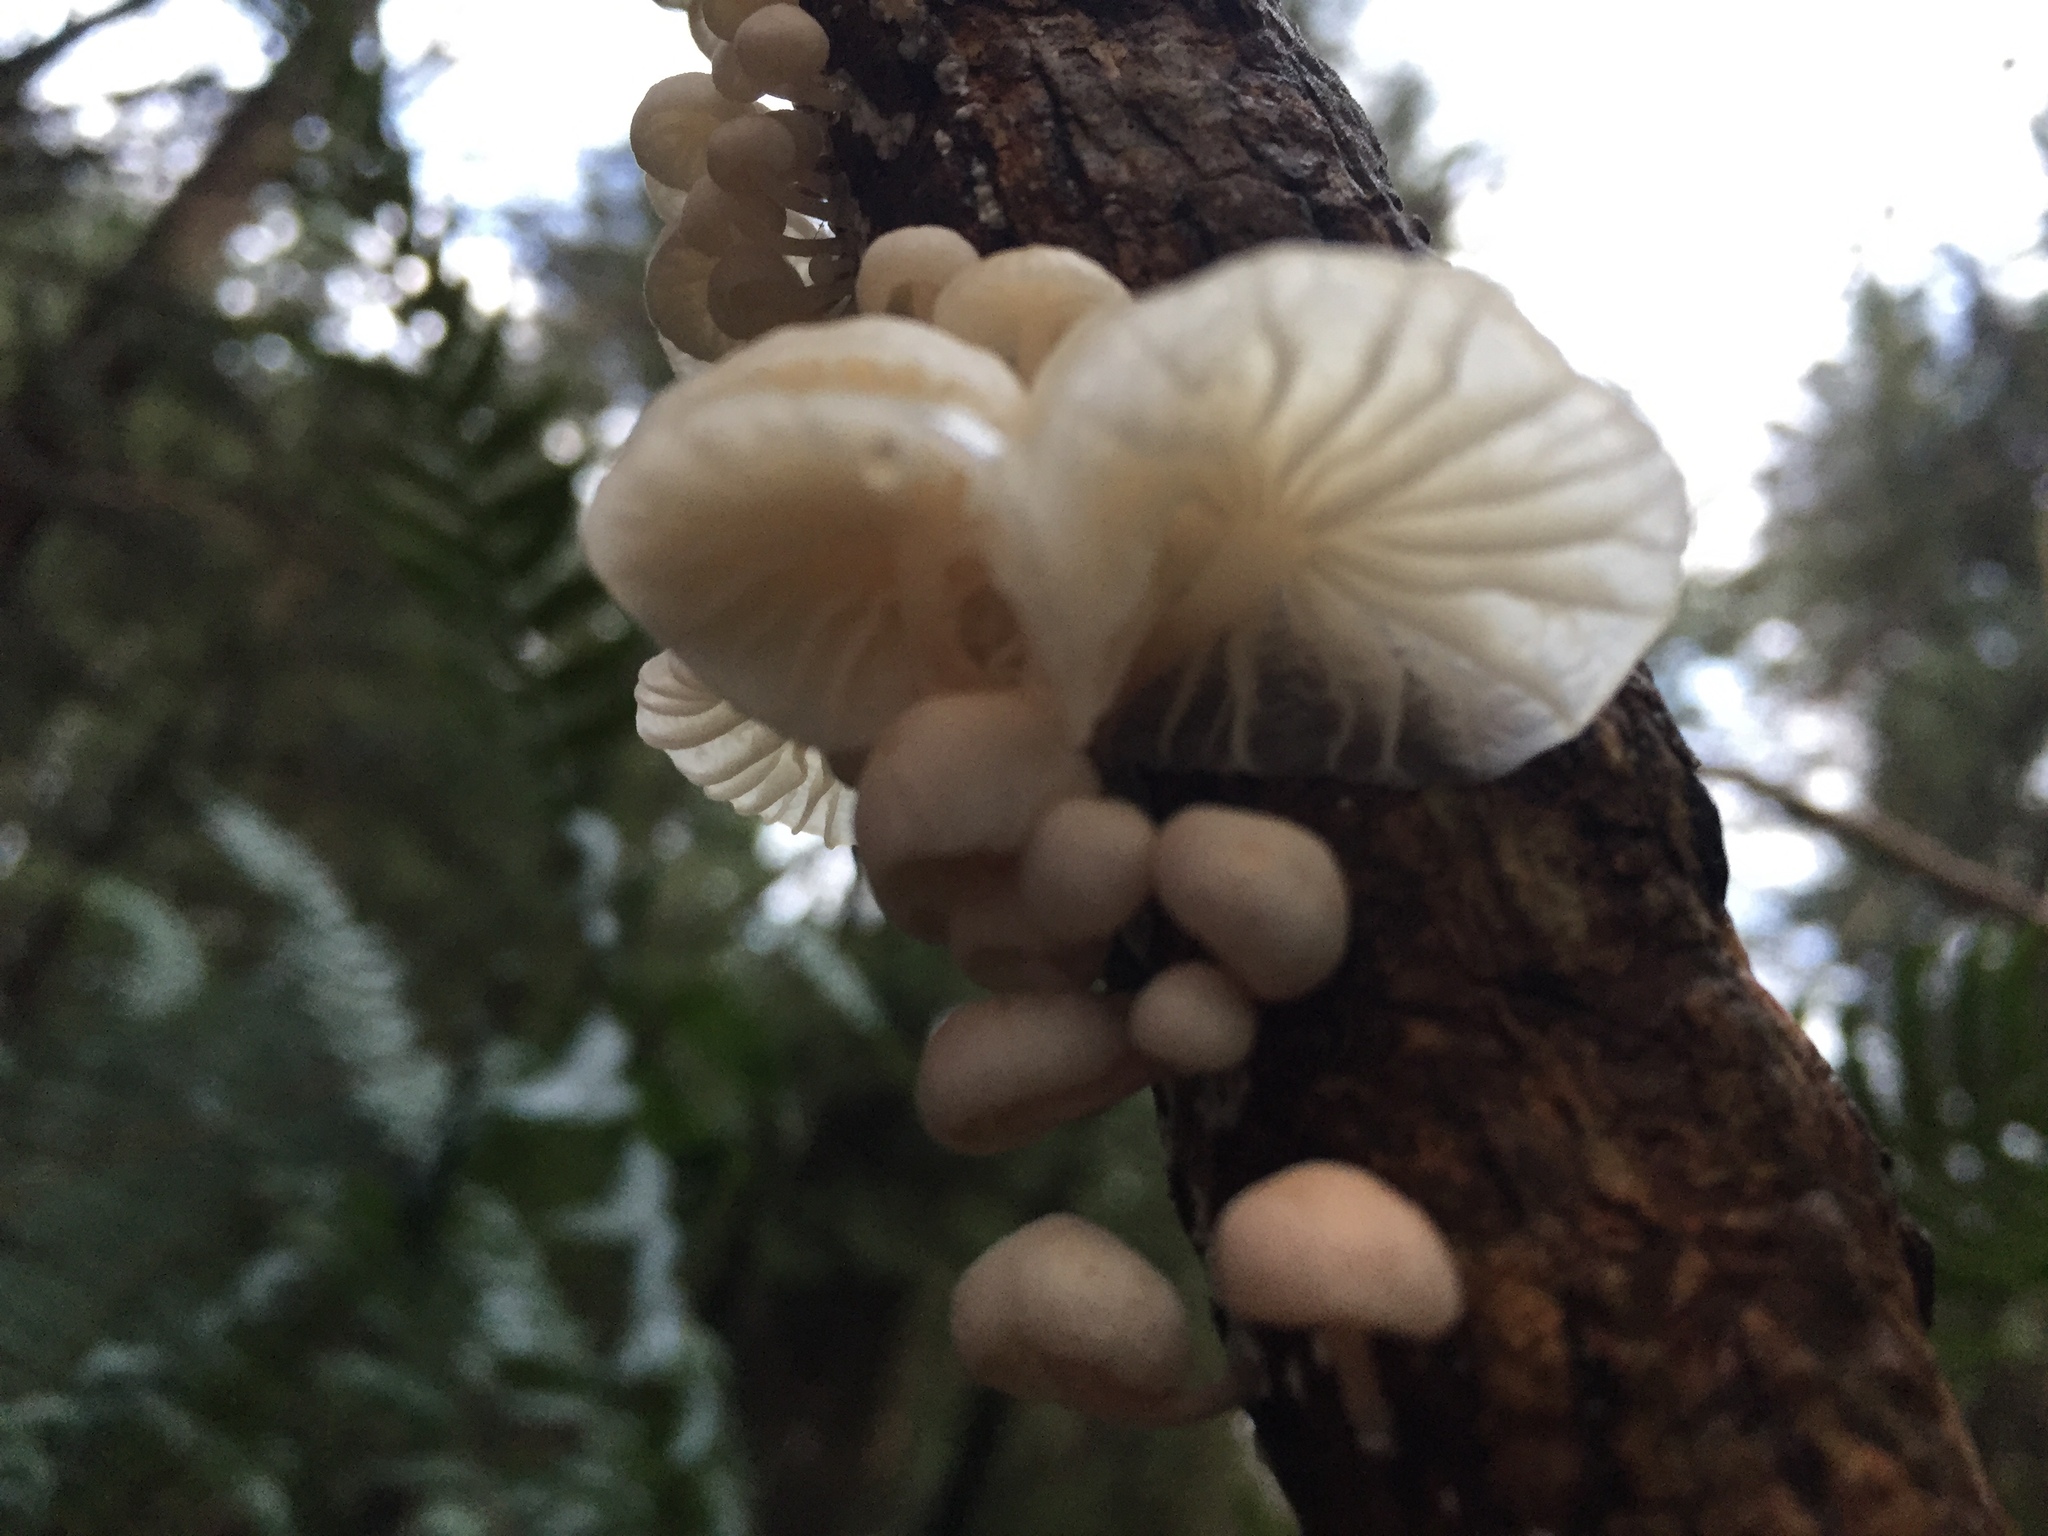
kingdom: Fungi
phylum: Basidiomycota
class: Agaricomycetes
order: Agaricales
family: Omphalotaceae
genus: Marasmiellus
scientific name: Marasmiellus candidus
